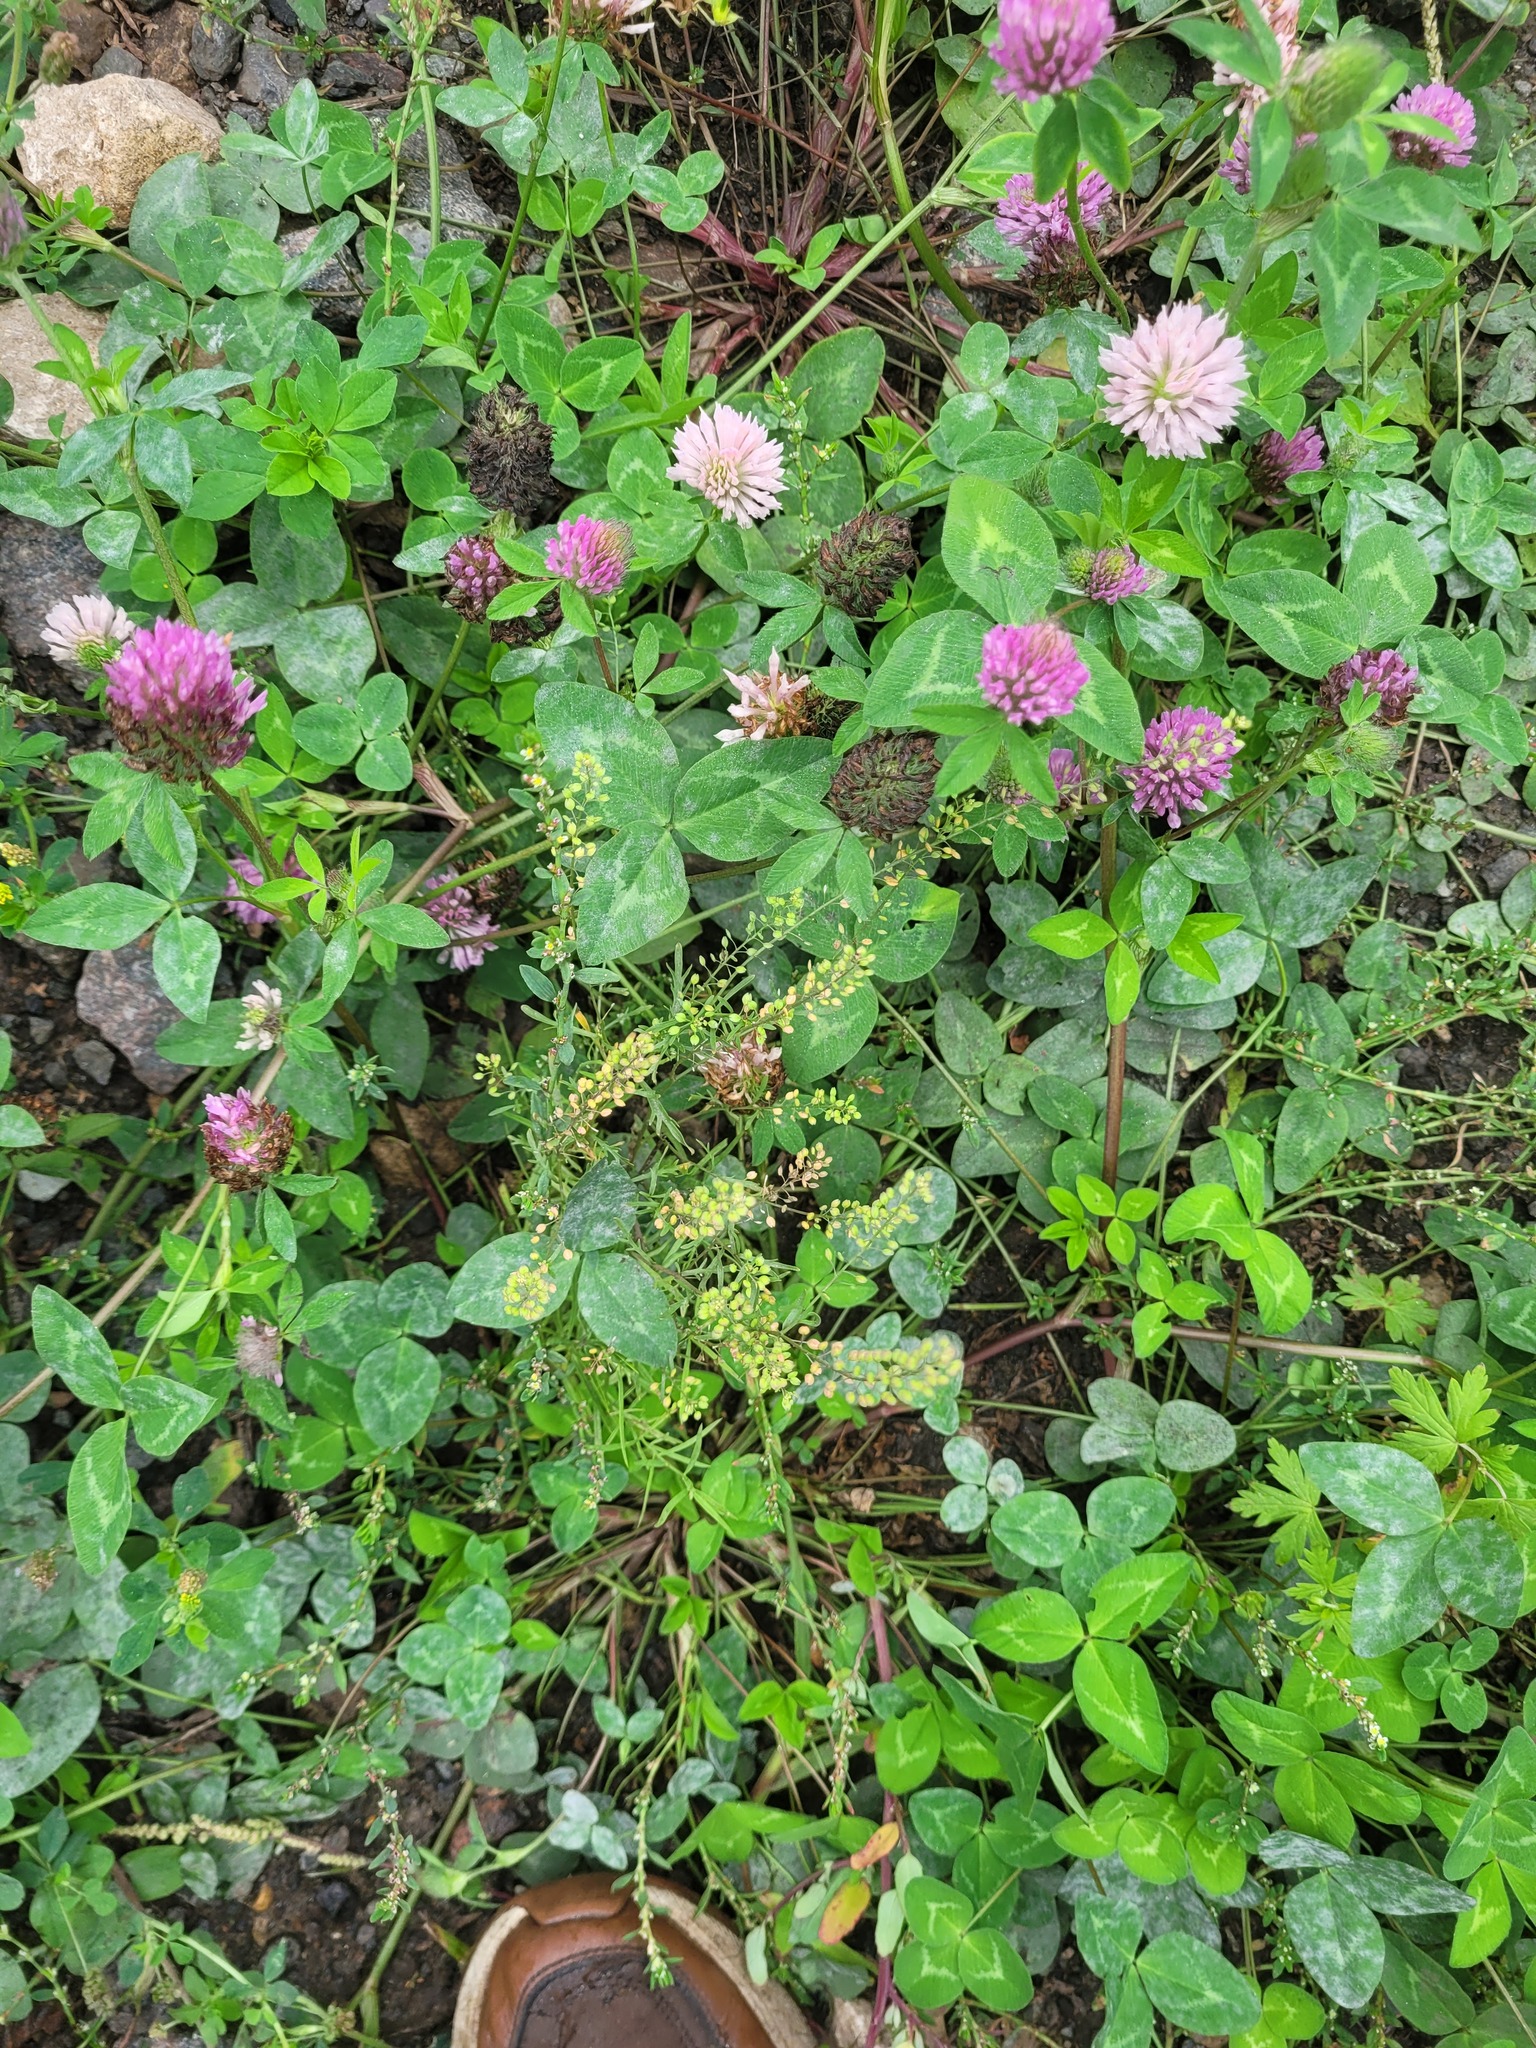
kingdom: Plantae
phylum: Tracheophyta
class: Magnoliopsida
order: Brassicales
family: Brassicaceae
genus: Lepidium
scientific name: Lepidium ruderale
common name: Narrow-leaved pepperwort
